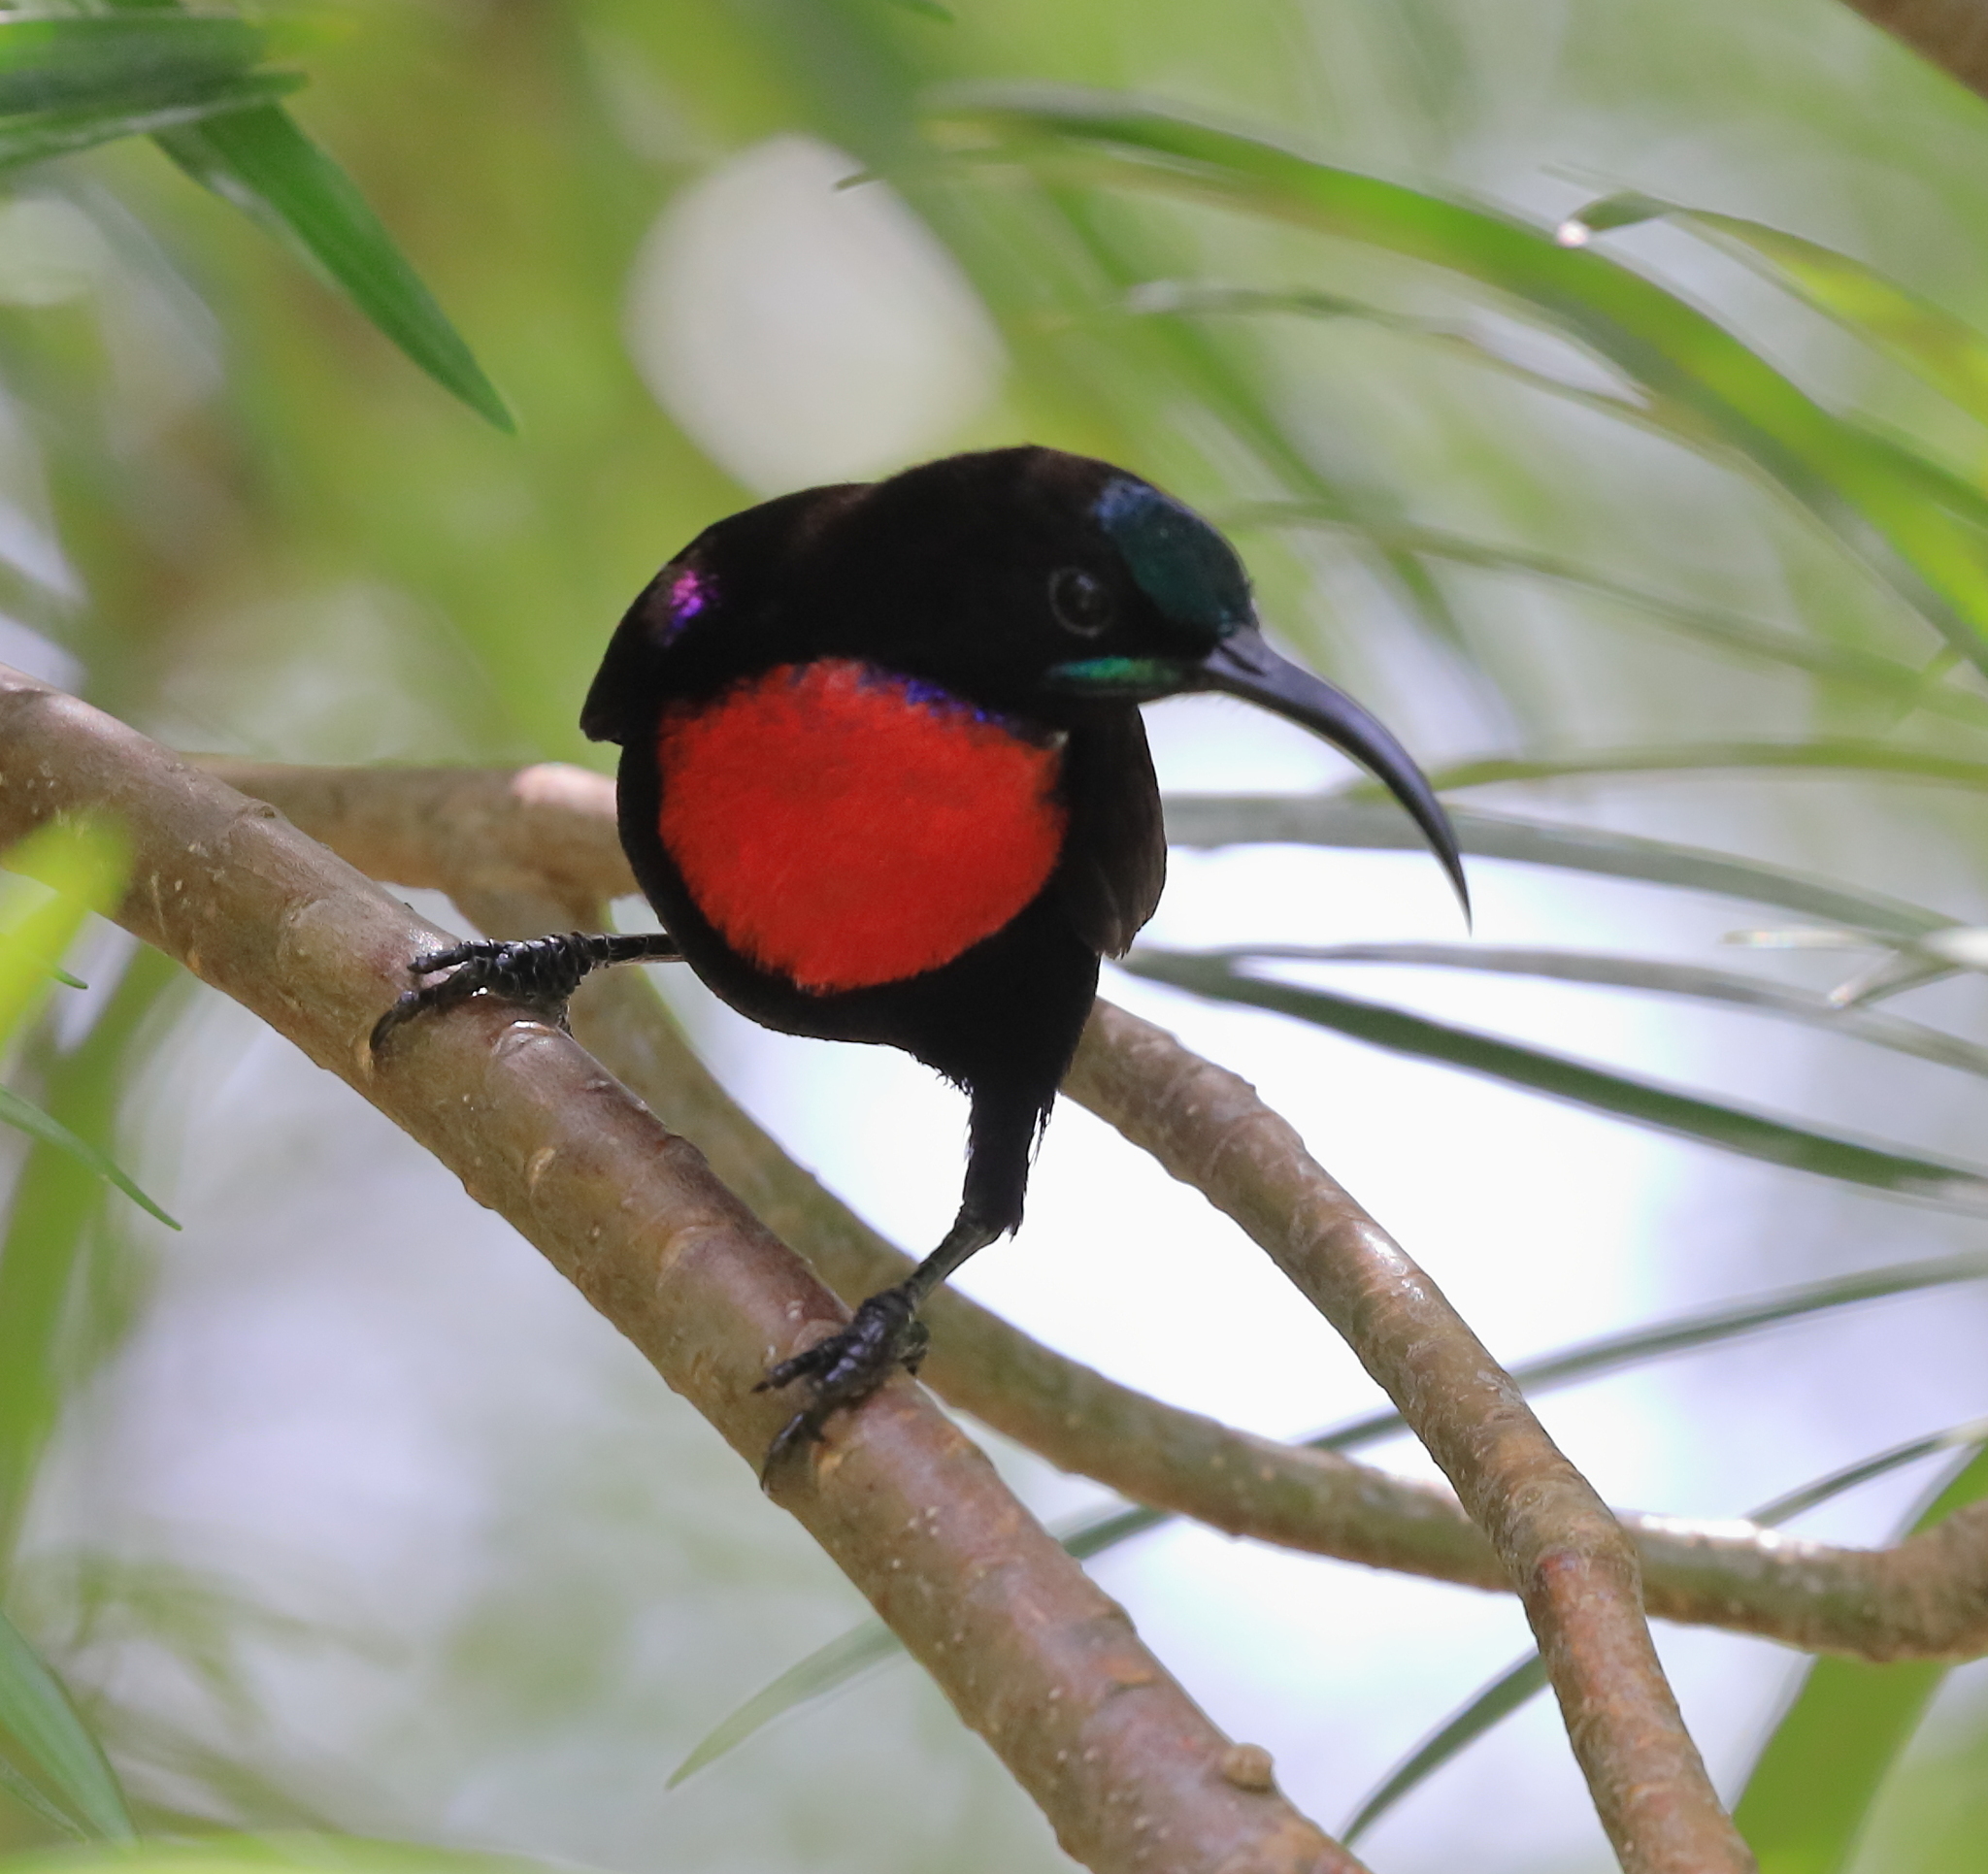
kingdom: Animalia
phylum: Chordata
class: Aves
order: Passeriformes
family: Nectariniidae
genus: Chalcomitra
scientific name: Chalcomitra senegalensis
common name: Scarlet-chested sunbird
